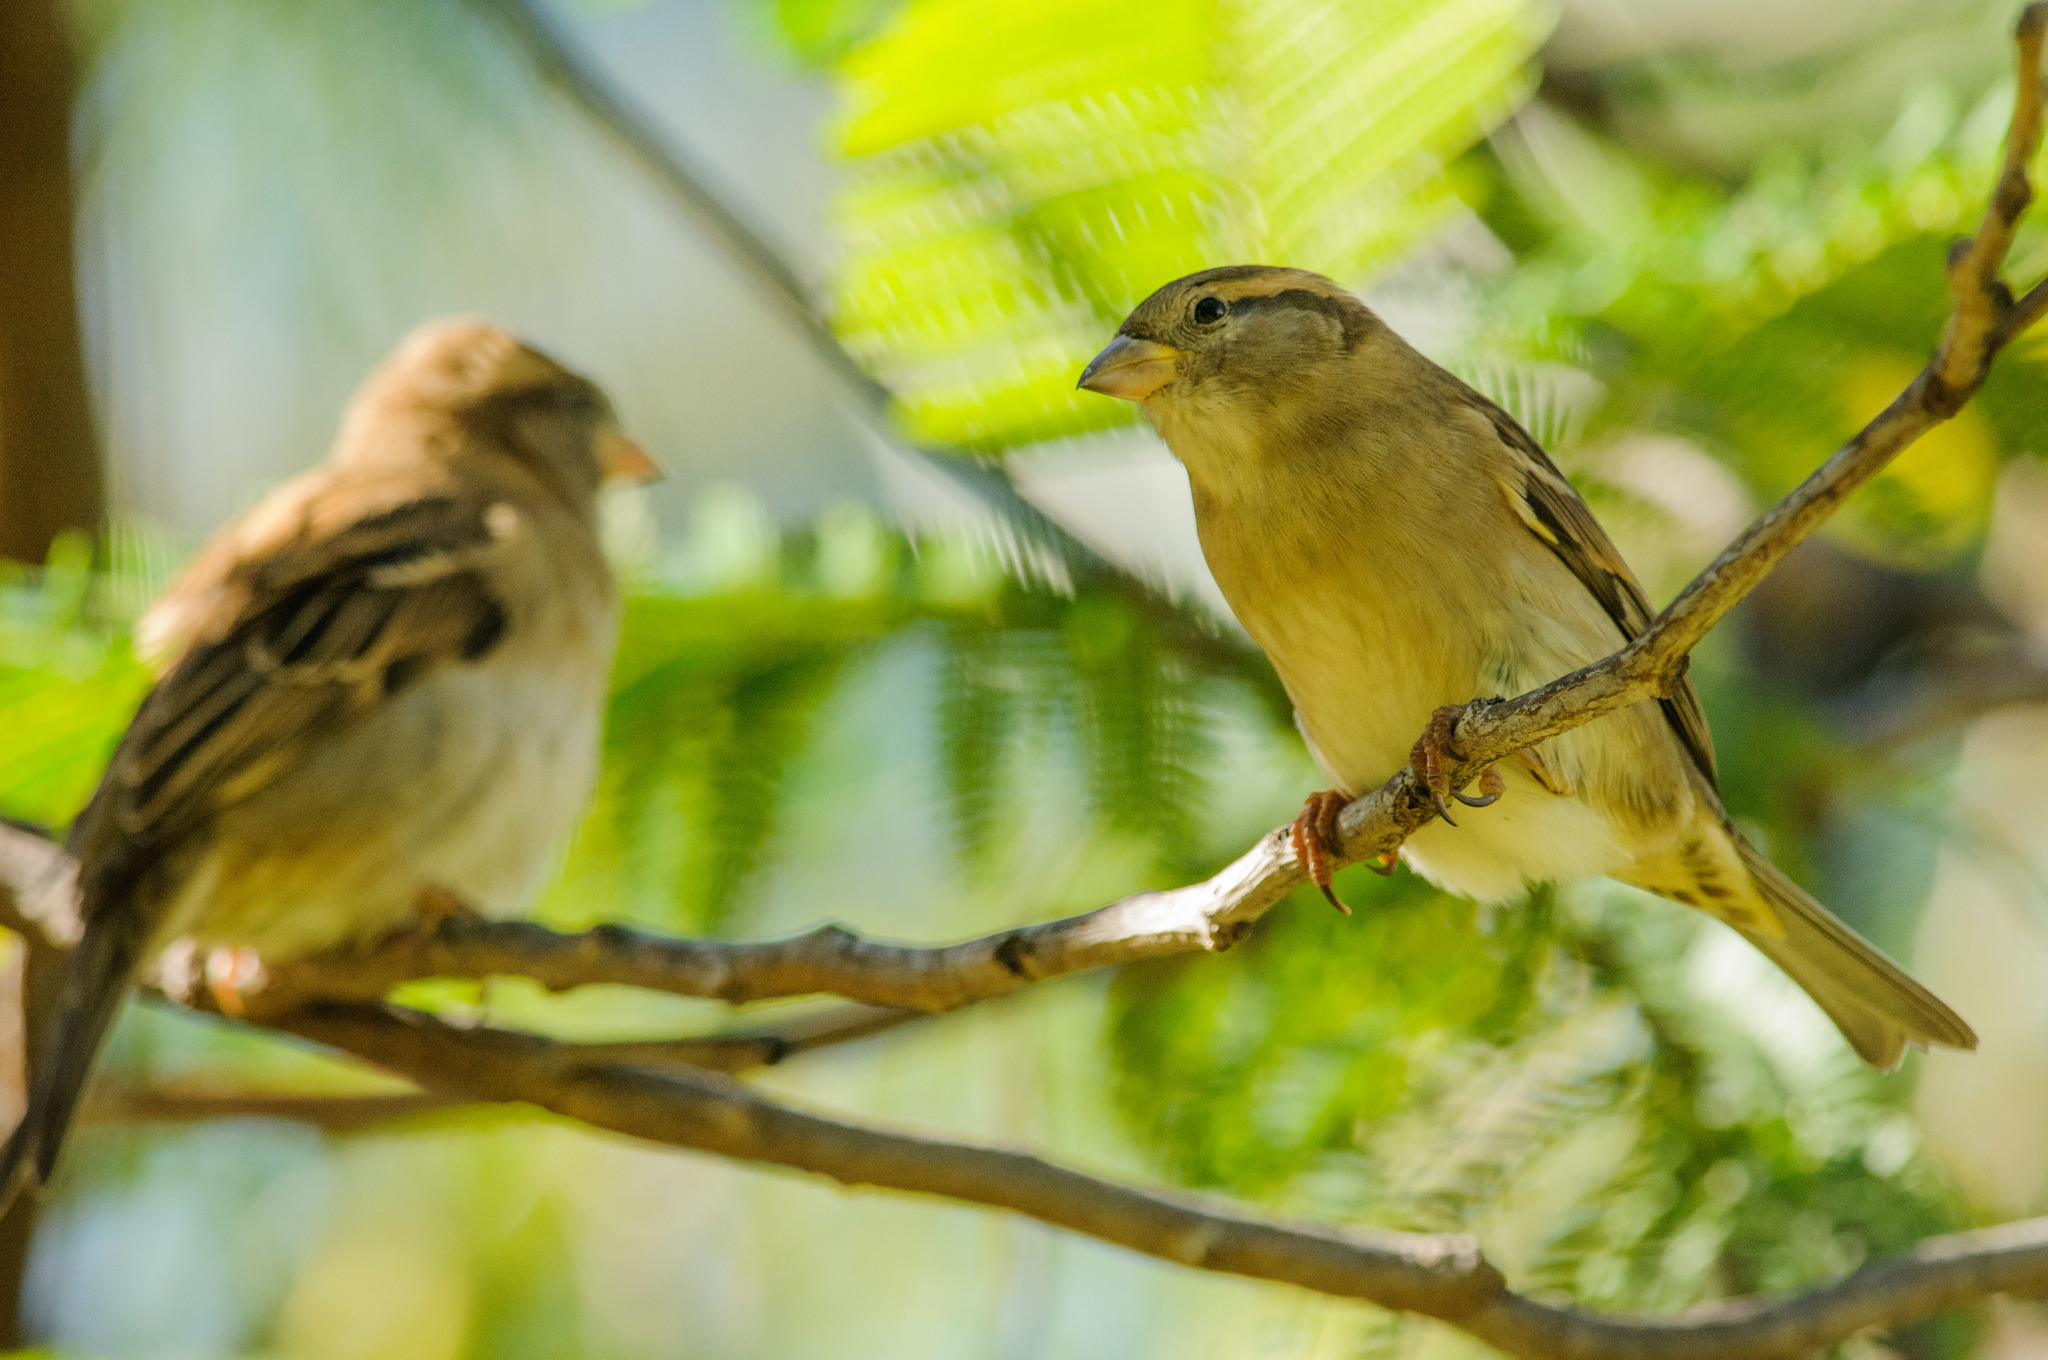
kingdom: Animalia
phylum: Chordata
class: Aves
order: Passeriformes
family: Passeridae
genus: Passer
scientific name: Passer domesticus
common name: House sparrow
